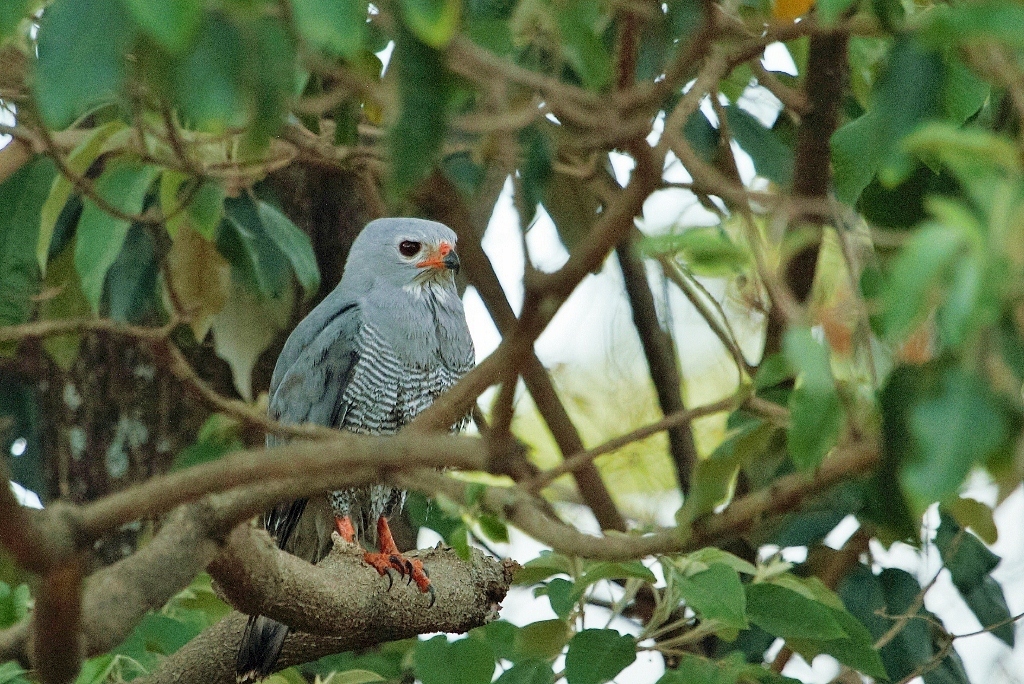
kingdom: Animalia
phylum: Chordata
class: Aves
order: Accipitriformes
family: Accipitridae
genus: Kaupifalco
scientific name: Kaupifalco monogrammicus
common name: Lizard buzzard
